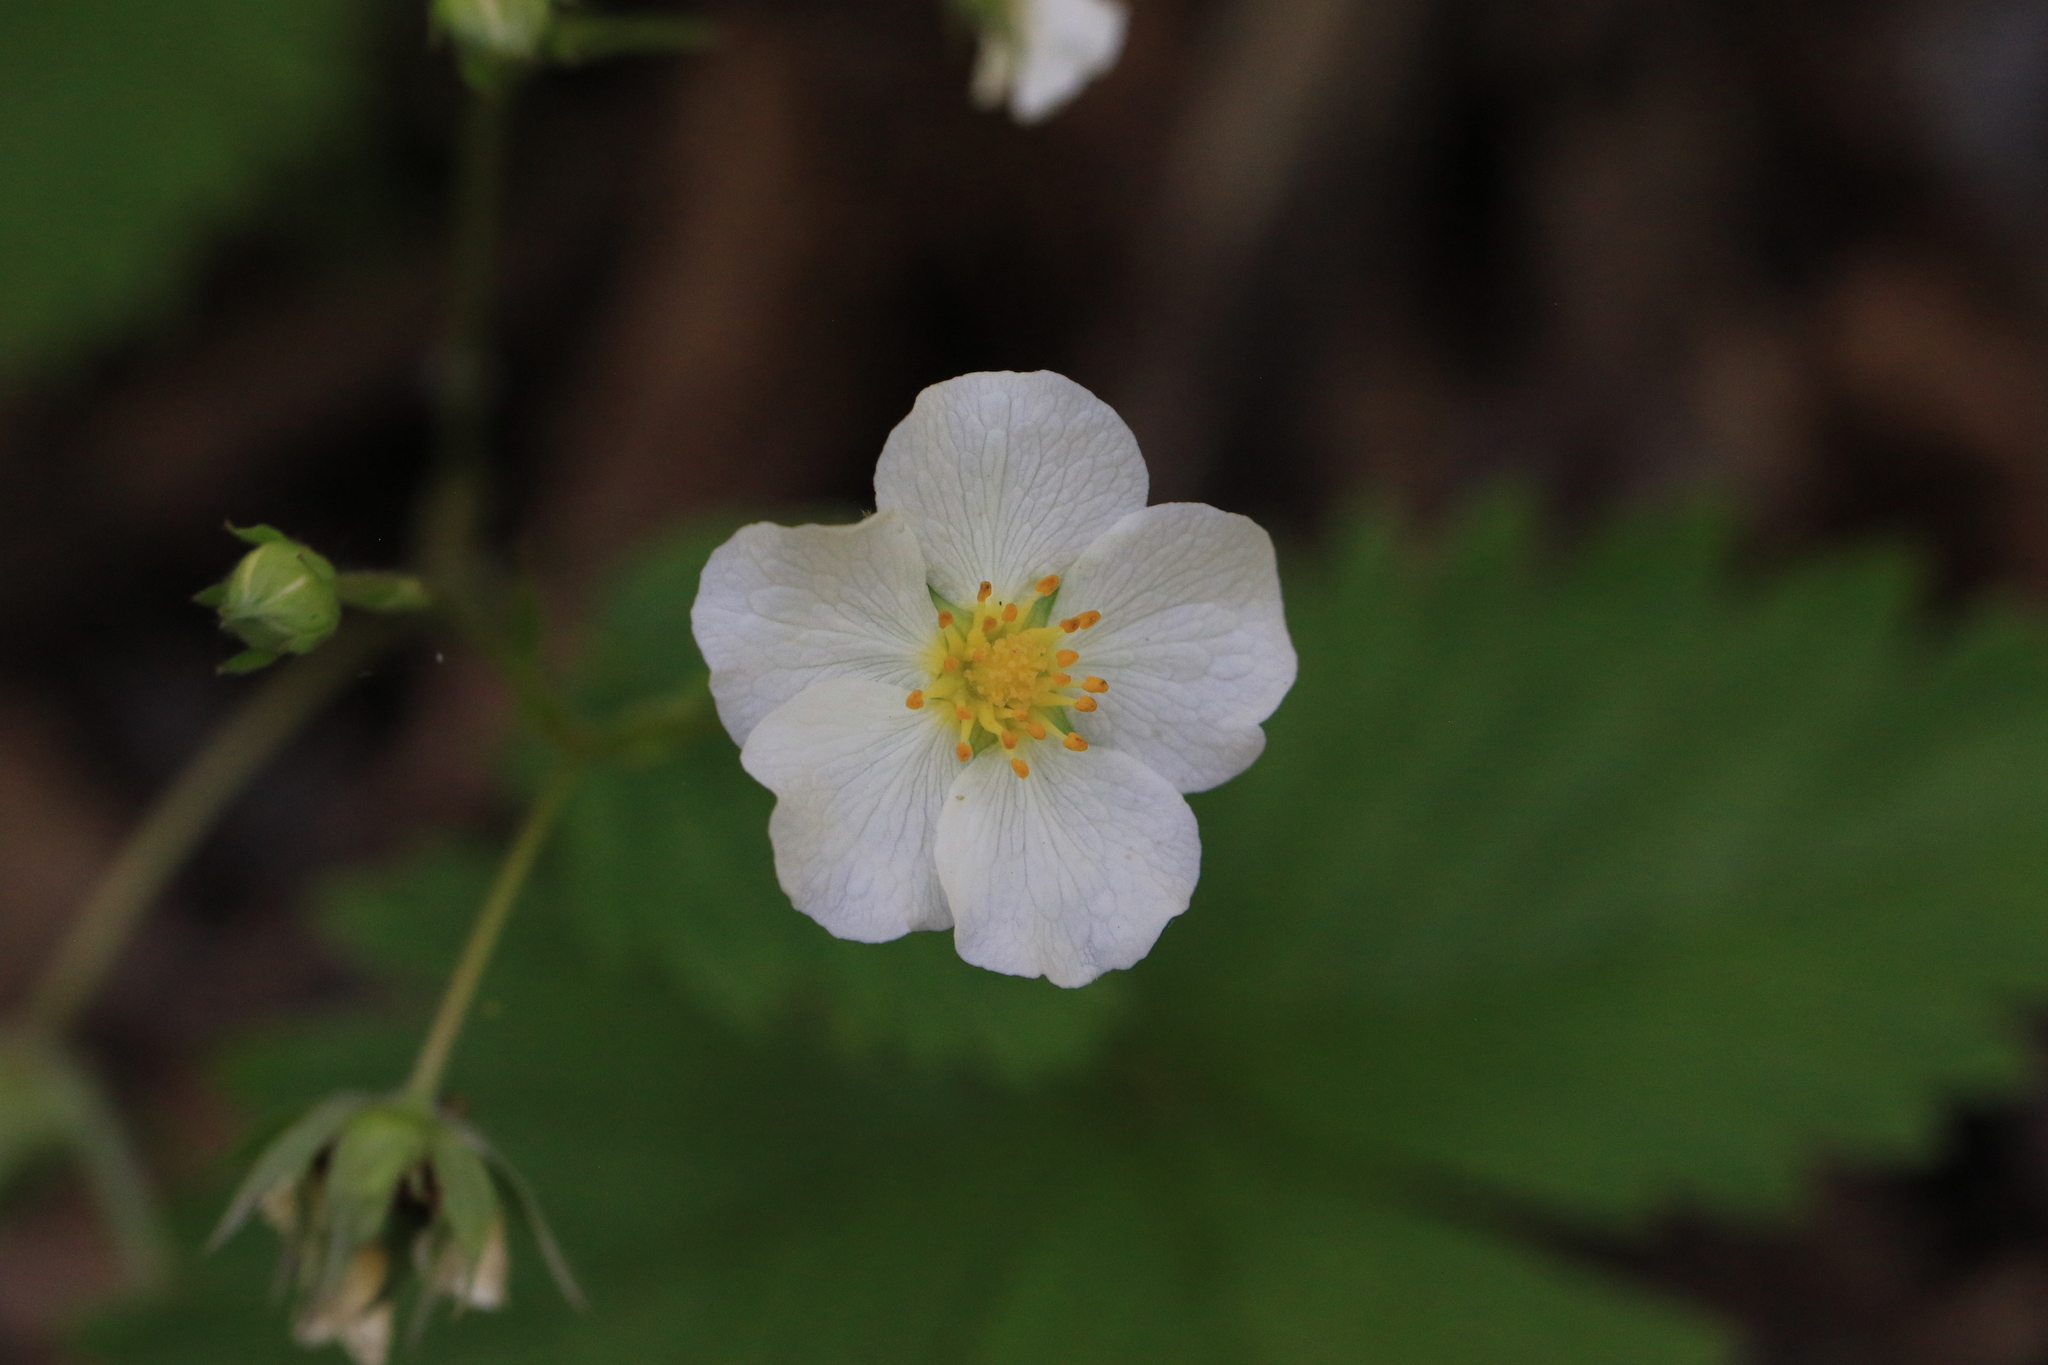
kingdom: Plantae
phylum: Tracheophyta
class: Magnoliopsida
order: Rosales
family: Rosaceae
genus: Fragaria
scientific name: Fragaria vesca
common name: Wild strawberry
